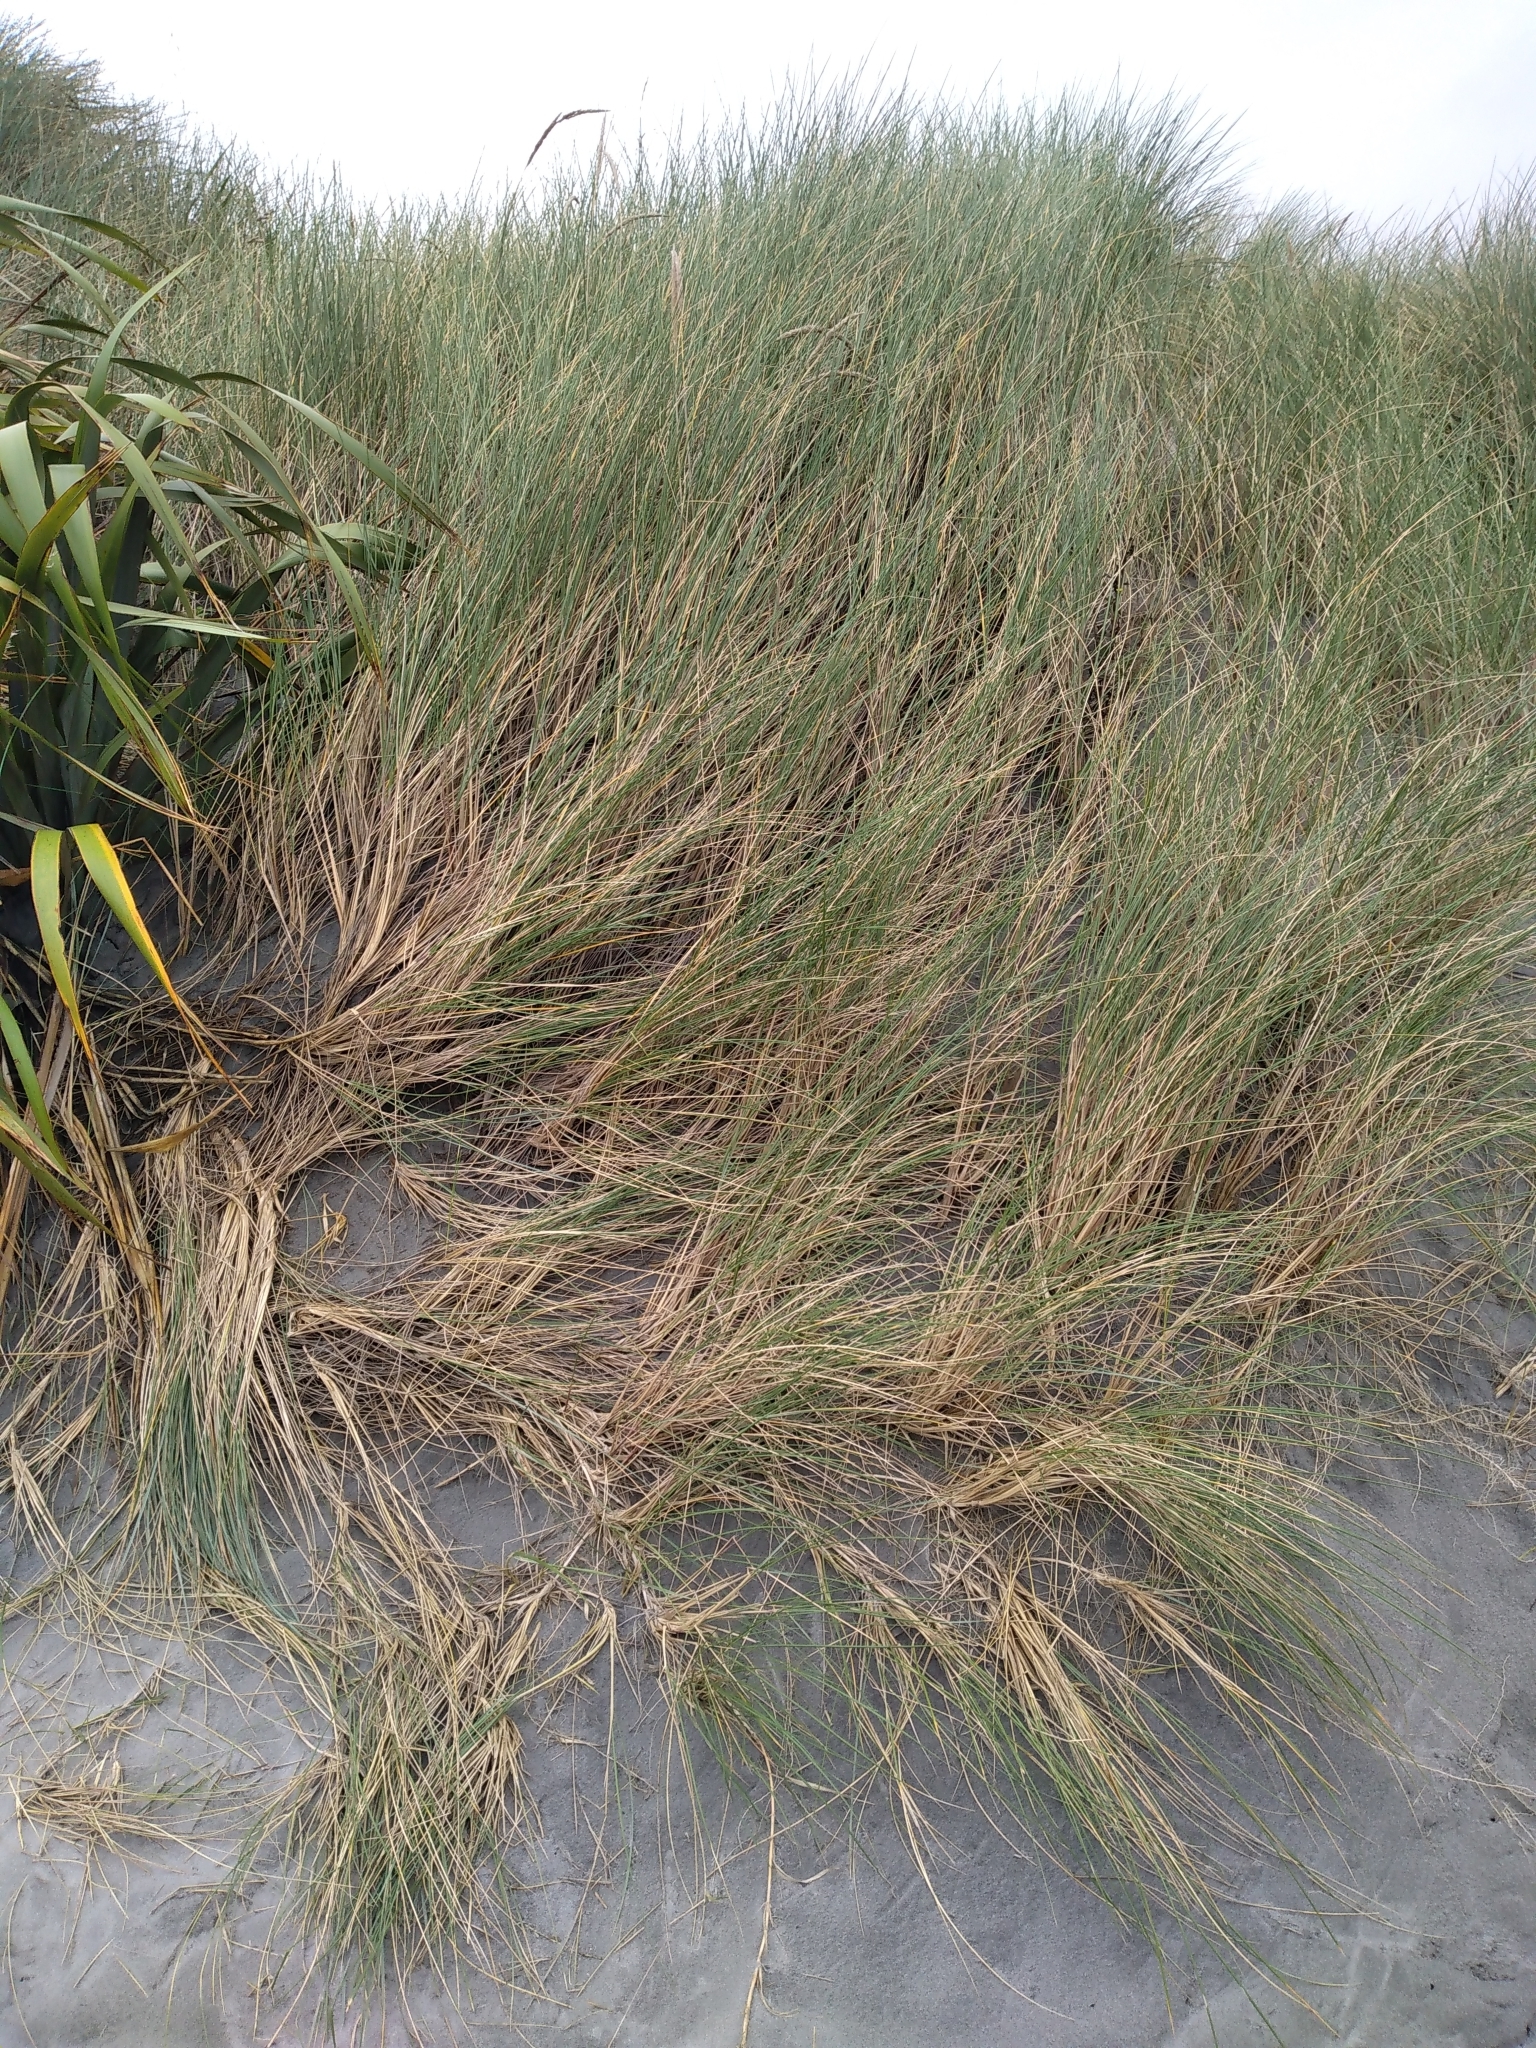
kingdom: Plantae
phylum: Tracheophyta
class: Liliopsida
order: Poales
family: Poaceae
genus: Calamagrostis
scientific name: Calamagrostis arenaria
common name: European beachgrass
